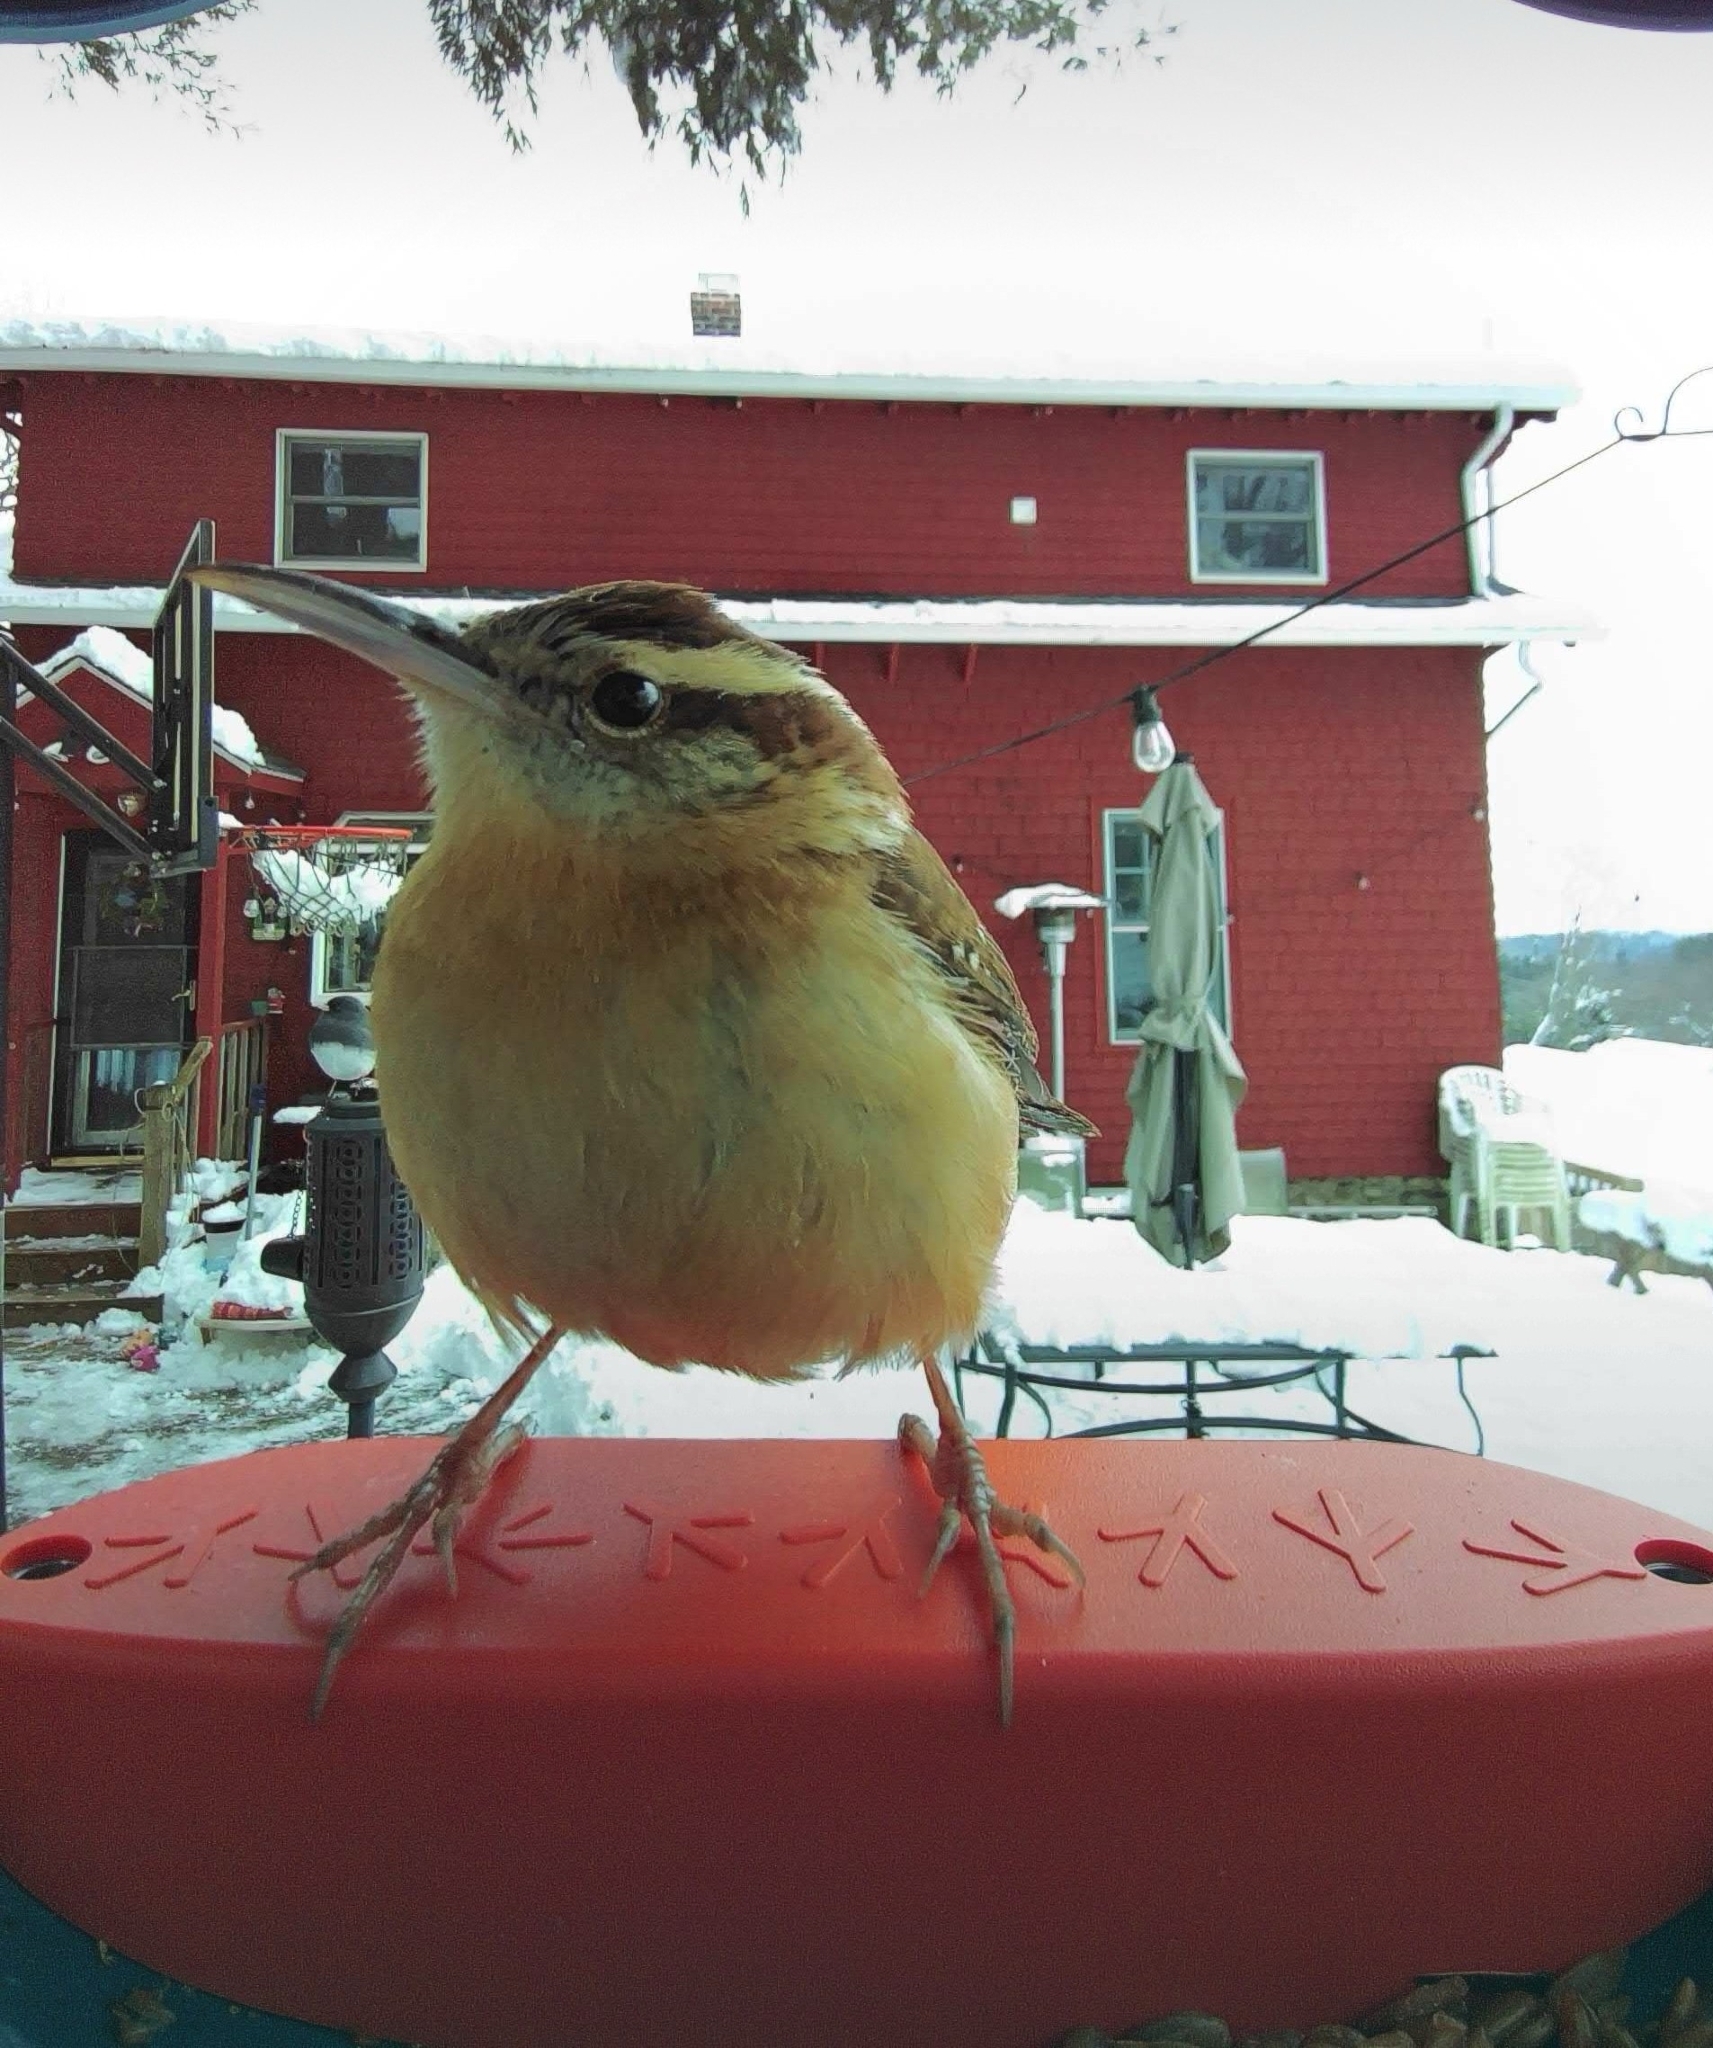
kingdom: Animalia
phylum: Chordata
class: Aves
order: Passeriformes
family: Troglodytidae
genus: Thryothorus
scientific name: Thryothorus ludovicianus
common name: Carolina wren
